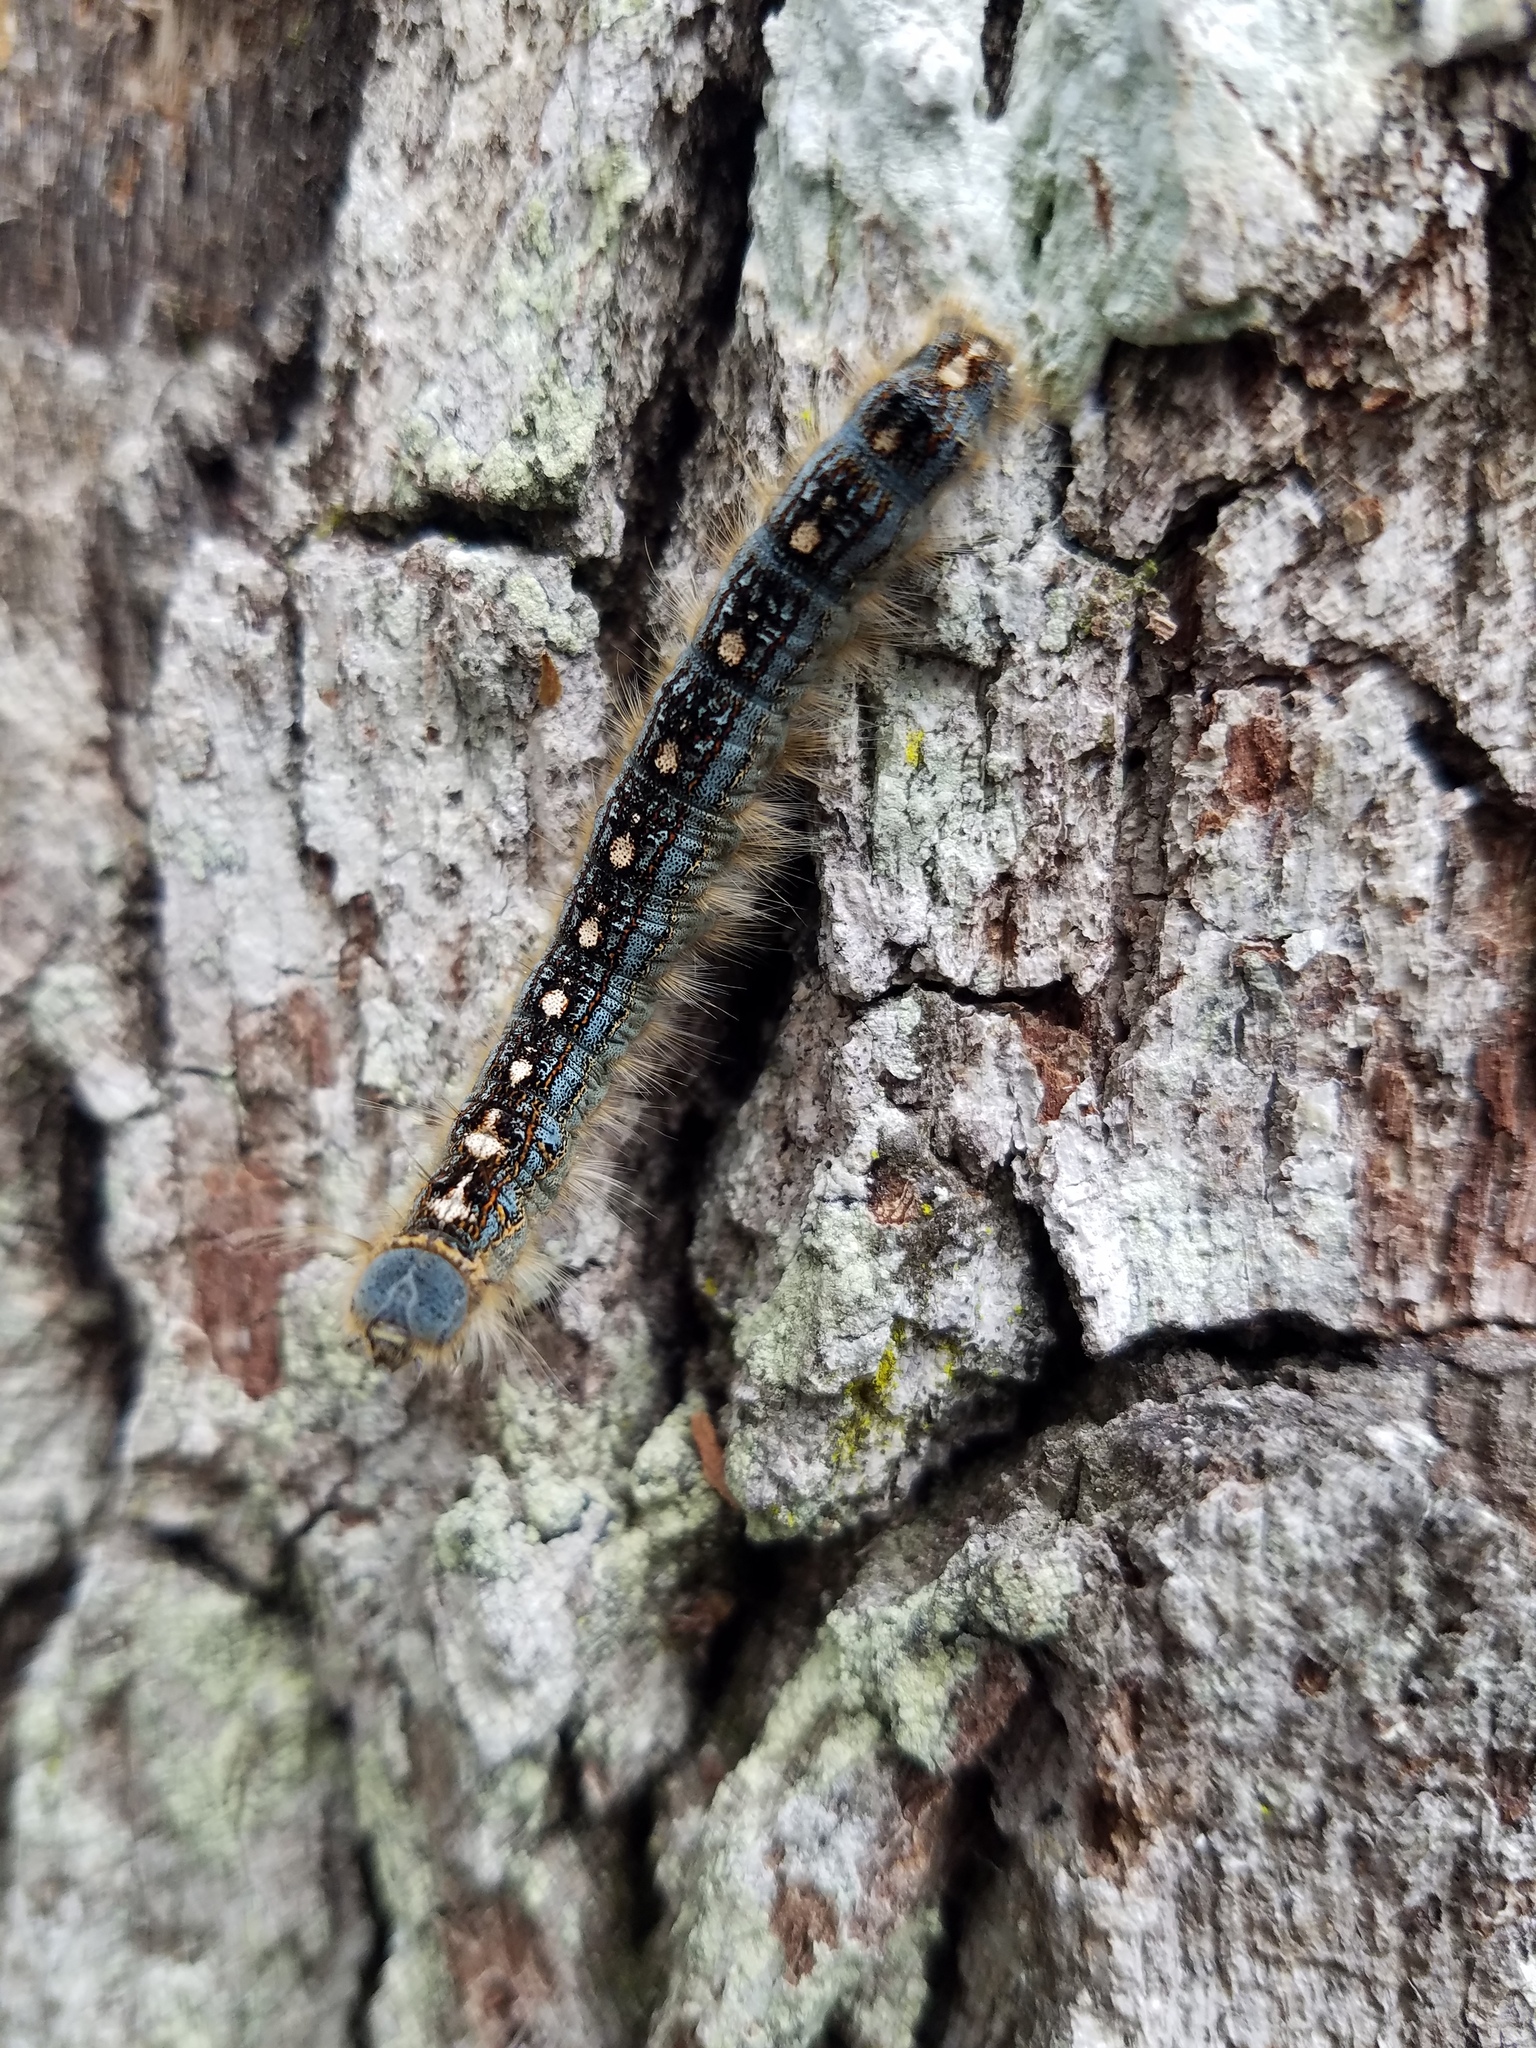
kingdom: Animalia
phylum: Arthropoda
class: Insecta
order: Lepidoptera
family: Lasiocampidae
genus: Malacosoma
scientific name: Malacosoma disstria
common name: Forest tent caterpillar
